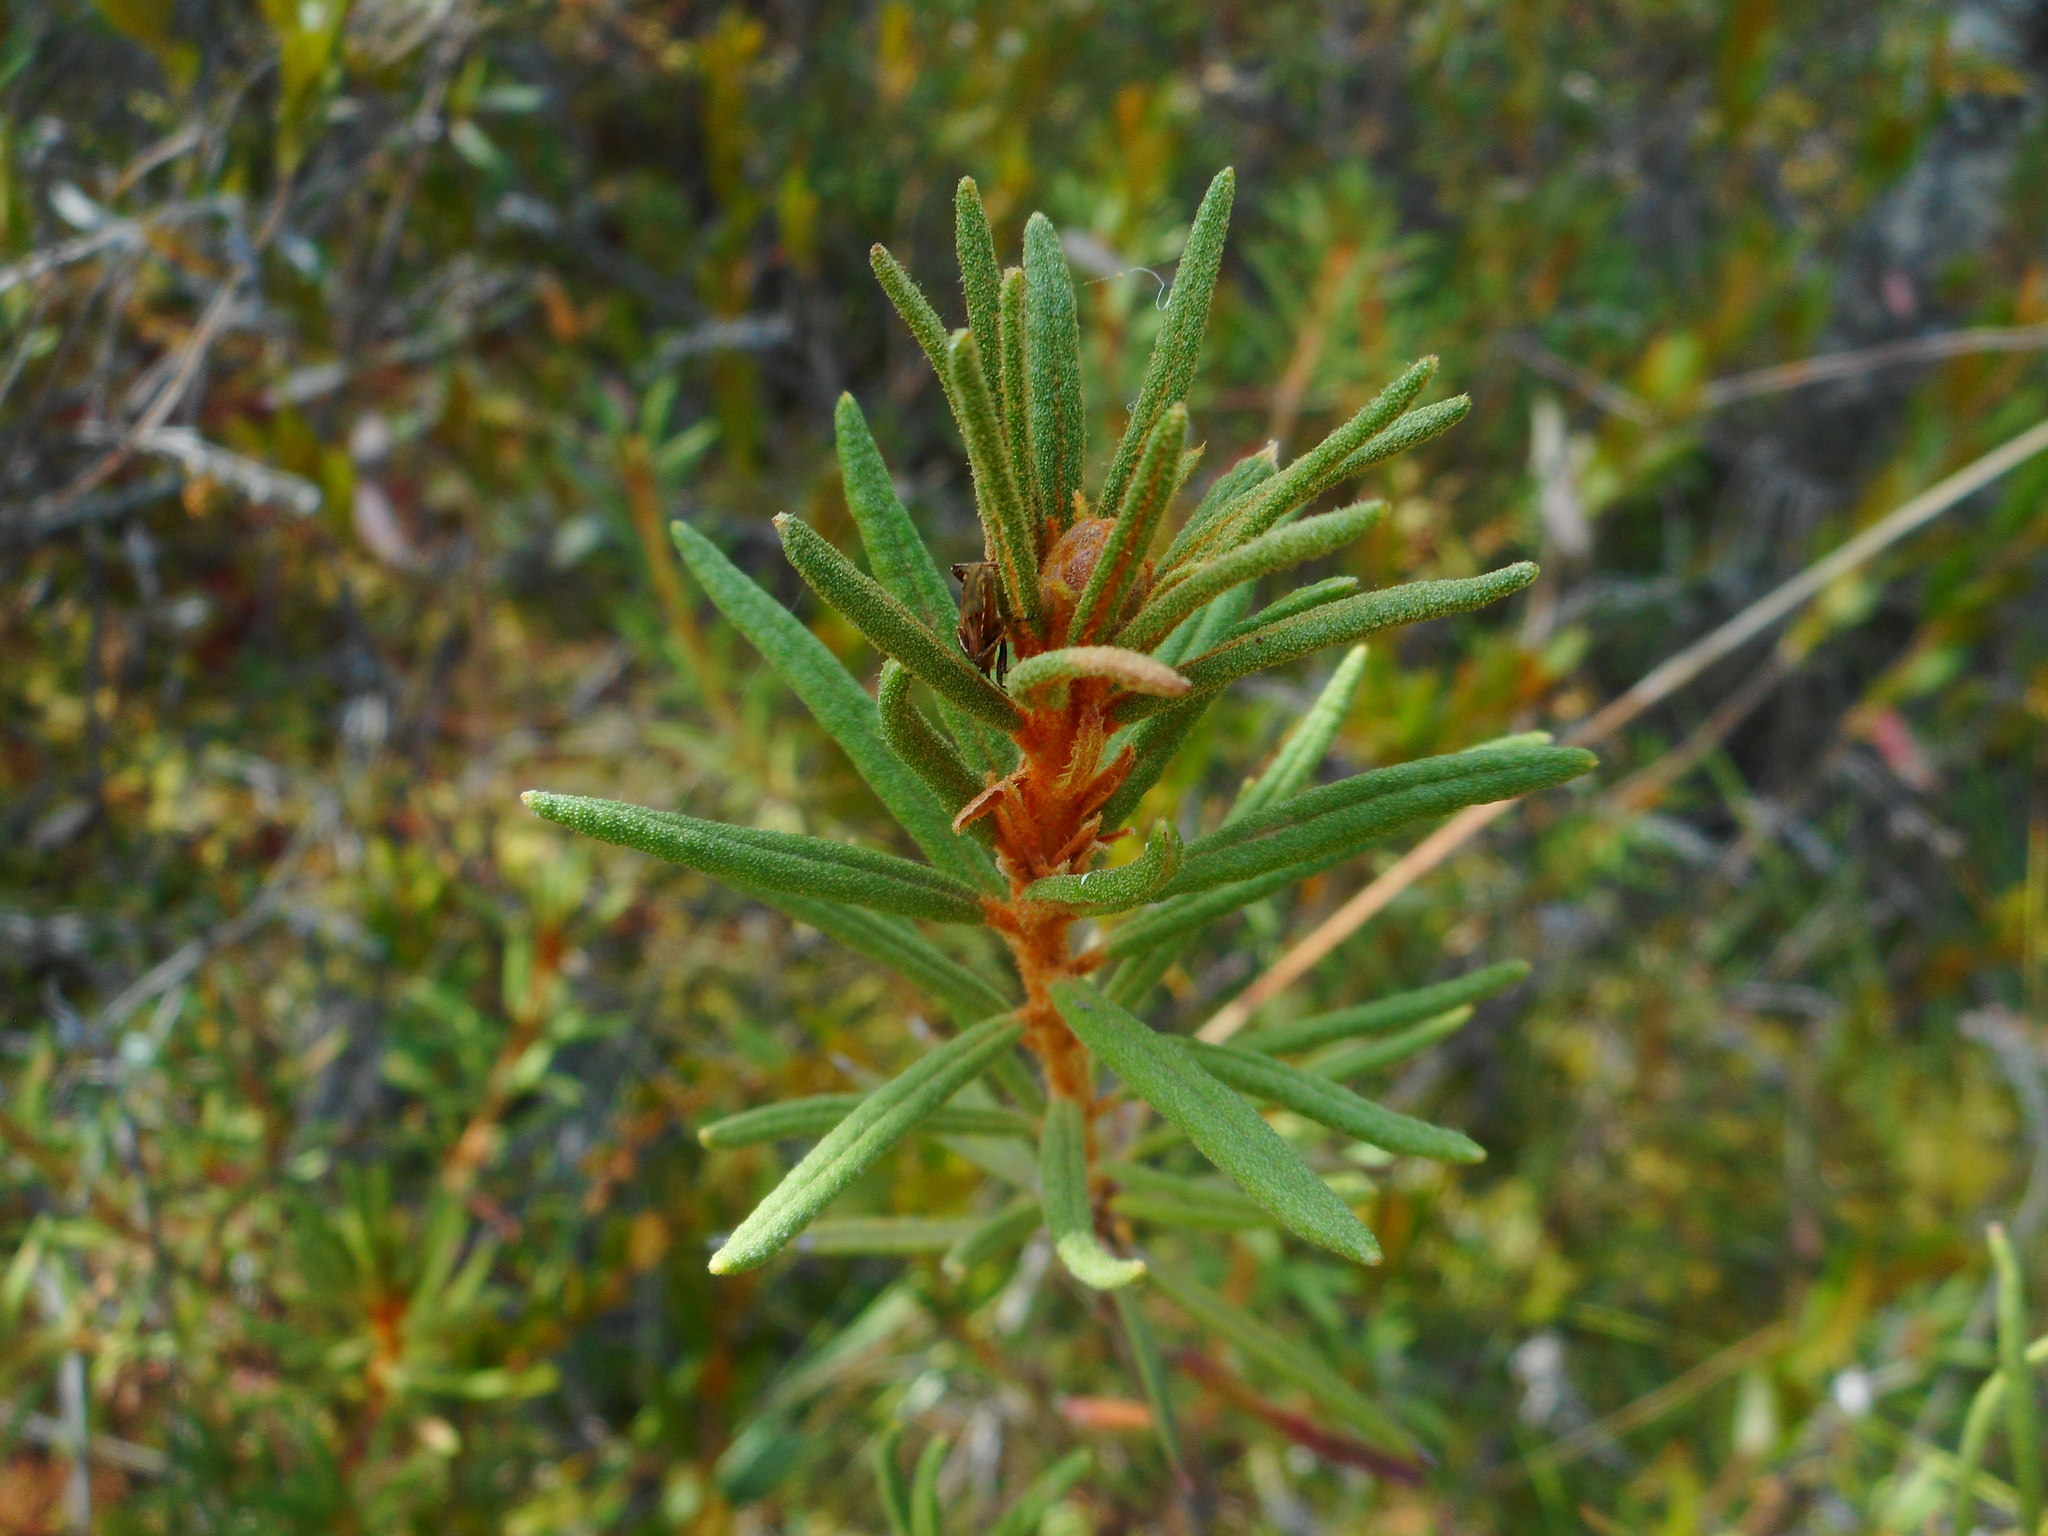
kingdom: Plantae
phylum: Tracheophyta
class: Magnoliopsida
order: Ericales
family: Ericaceae
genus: Rhododendron
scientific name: Rhododendron tomentosum
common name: Marsh labrador tea
